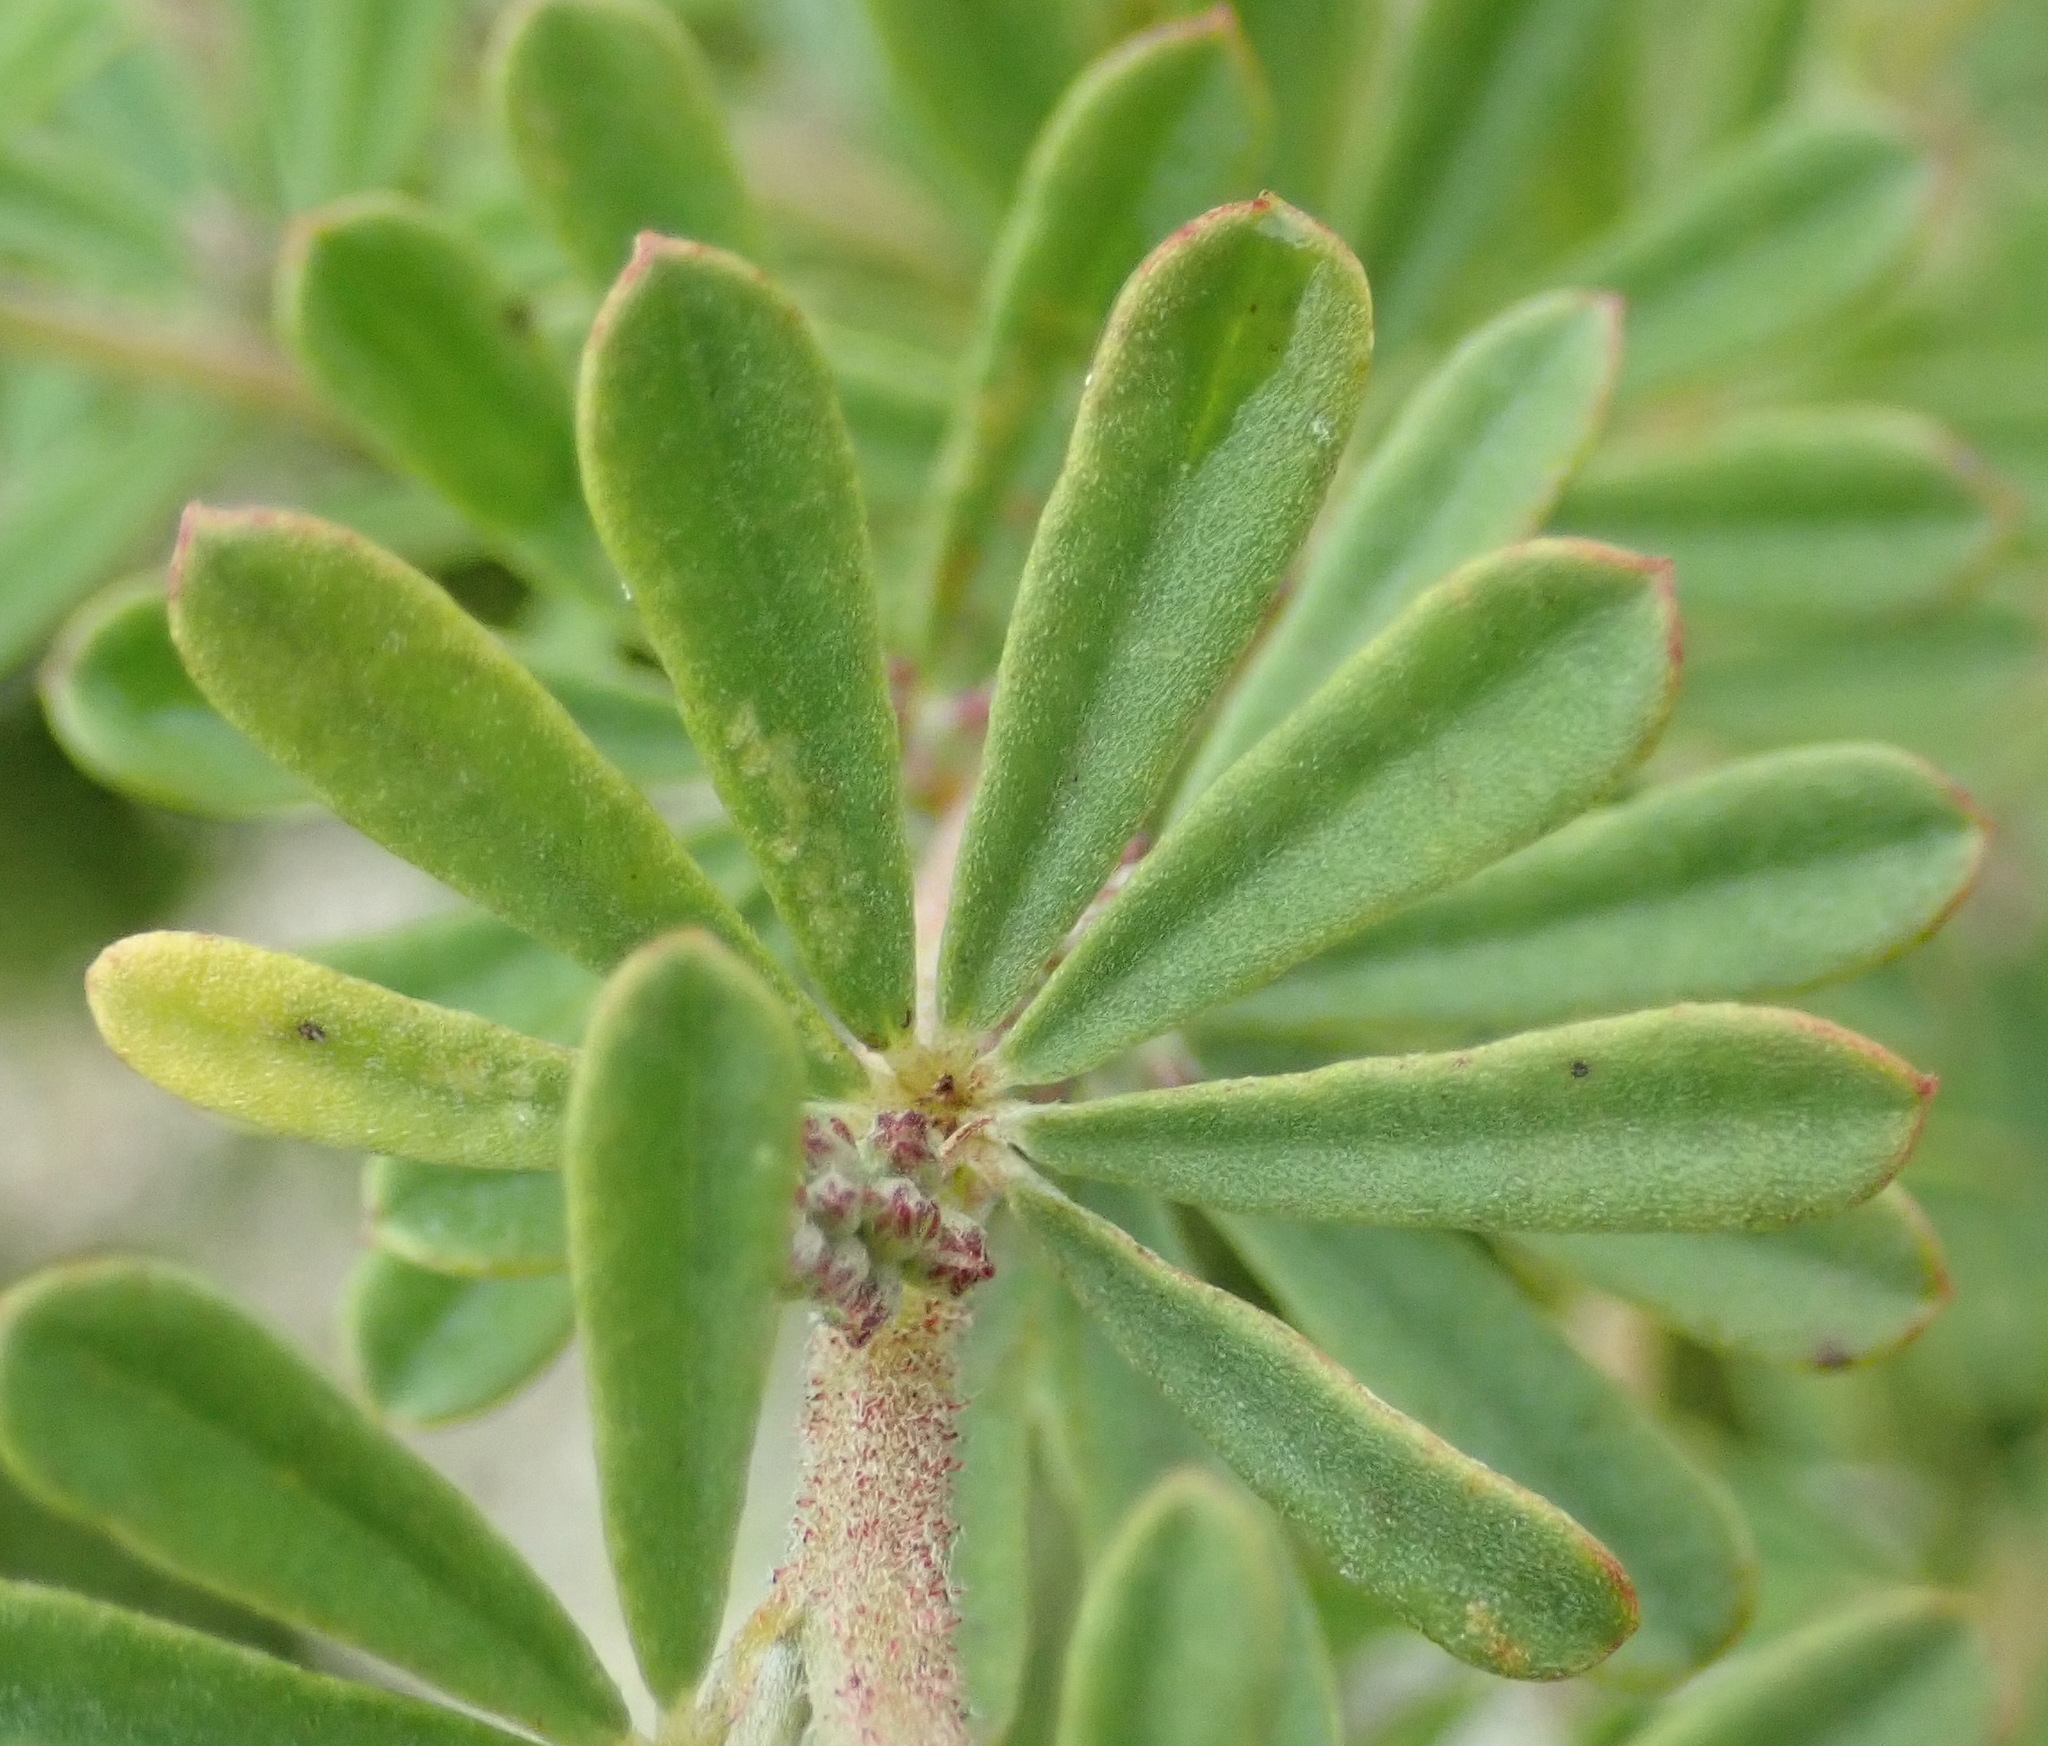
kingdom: Plantae
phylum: Tracheophyta
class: Magnoliopsida
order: Fabales
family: Fabaceae
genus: Indigofera
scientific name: Indigofera flabellata
